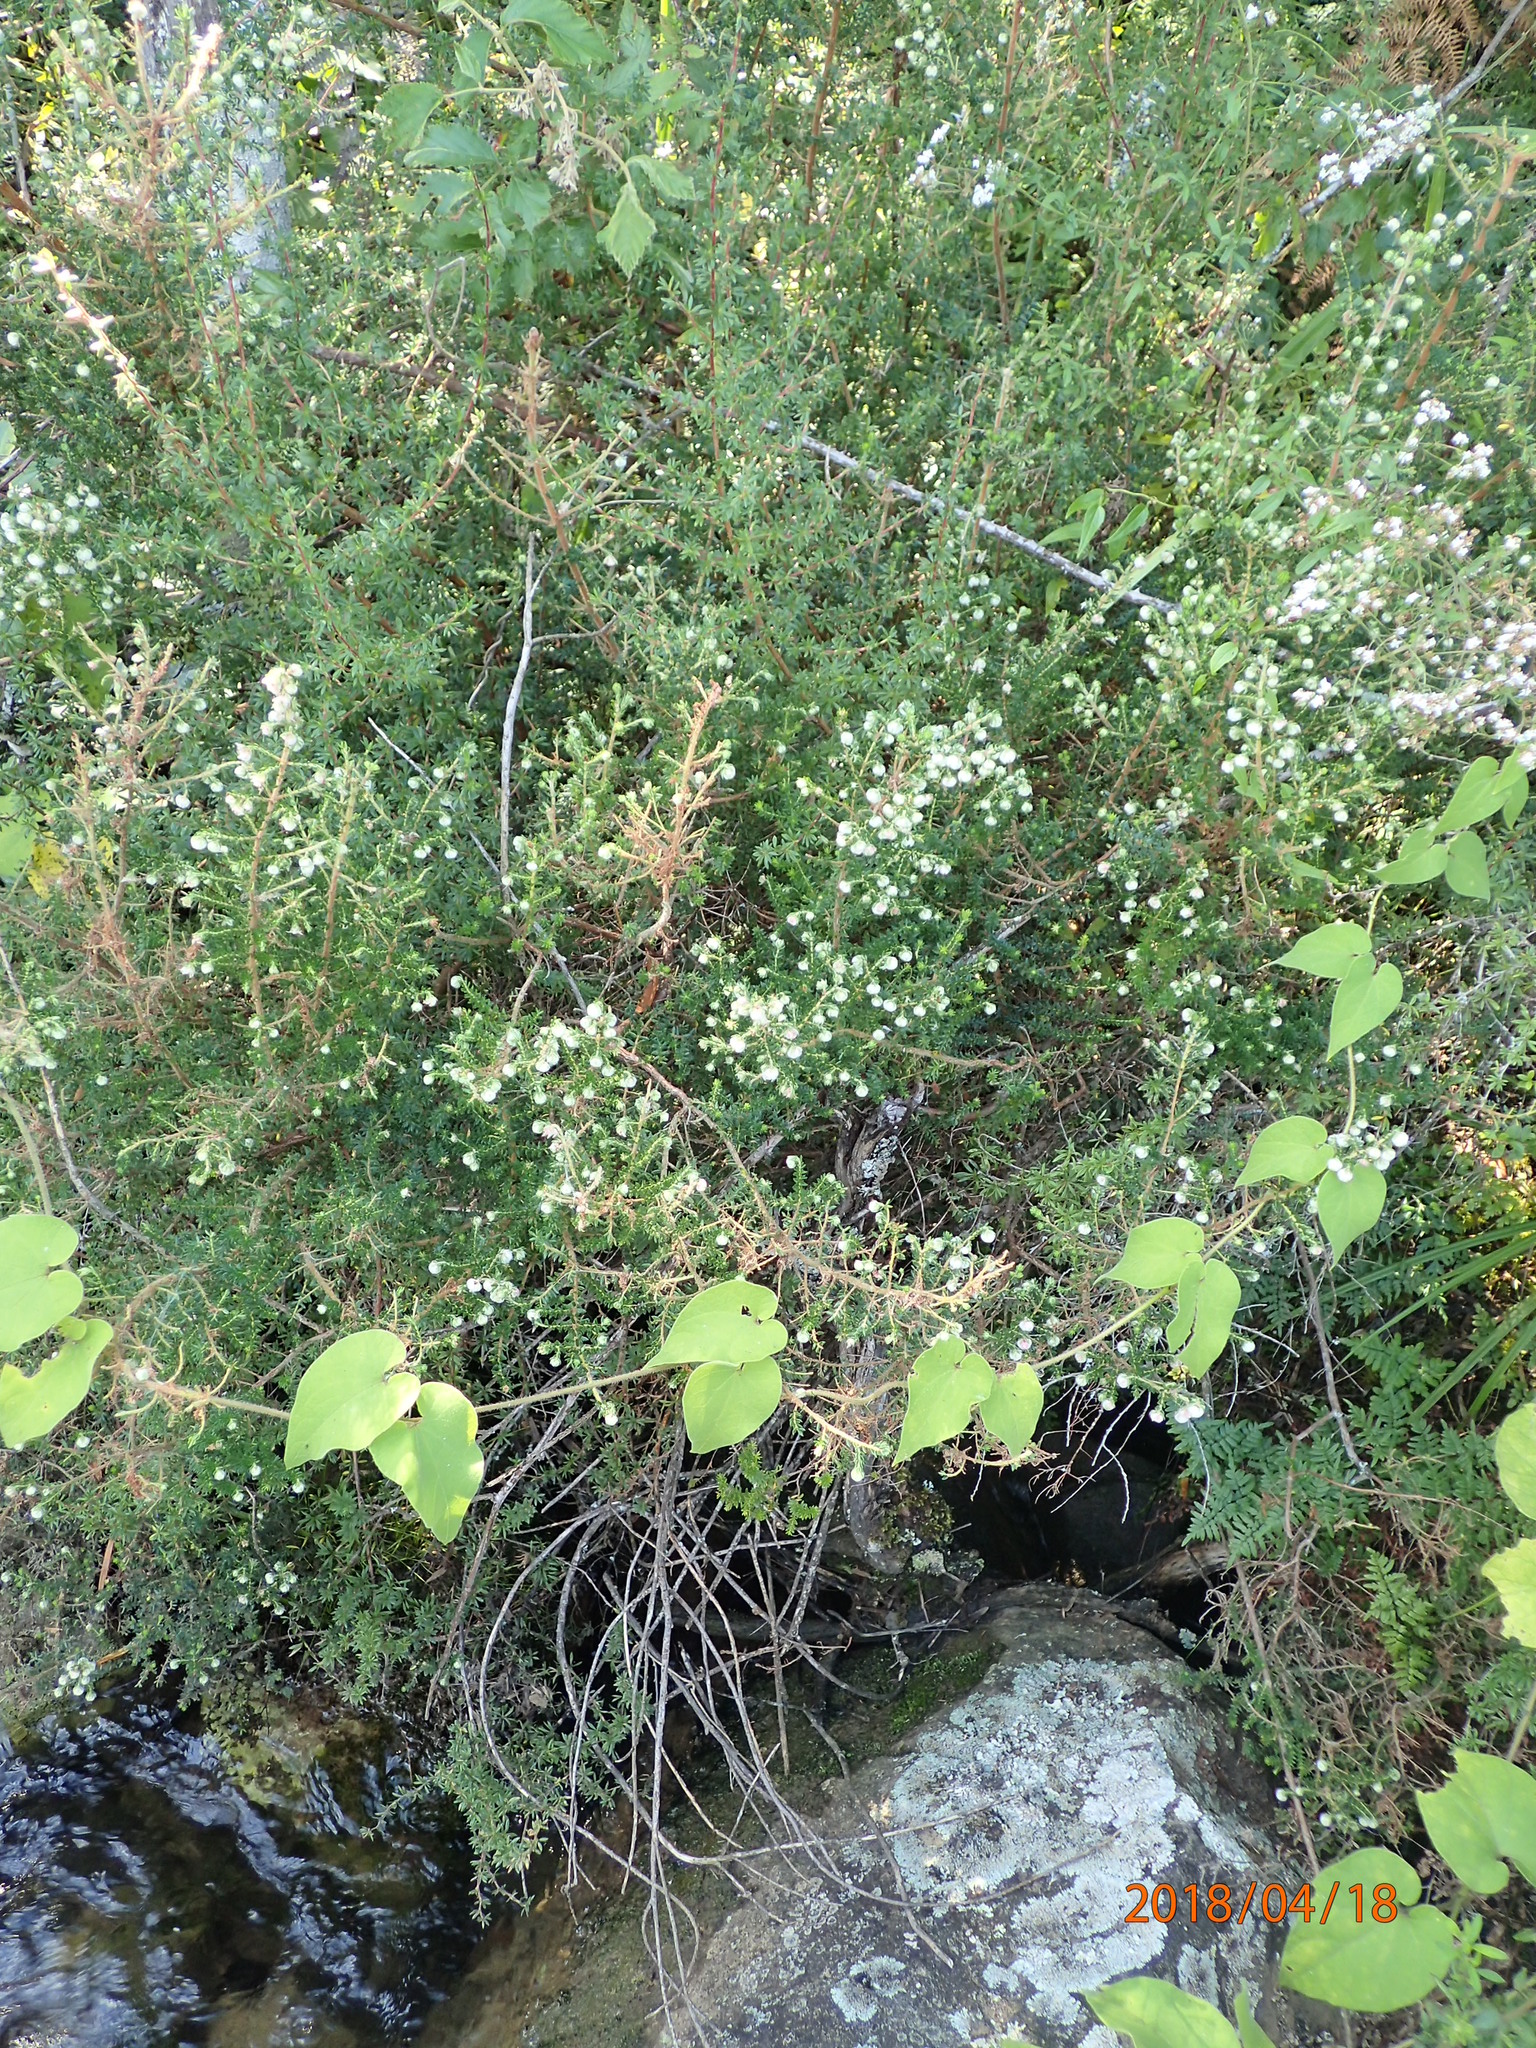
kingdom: Plantae
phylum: Tracheophyta
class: Magnoliopsida
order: Ericales
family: Ericaceae
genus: Erica
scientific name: Erica cooperi
